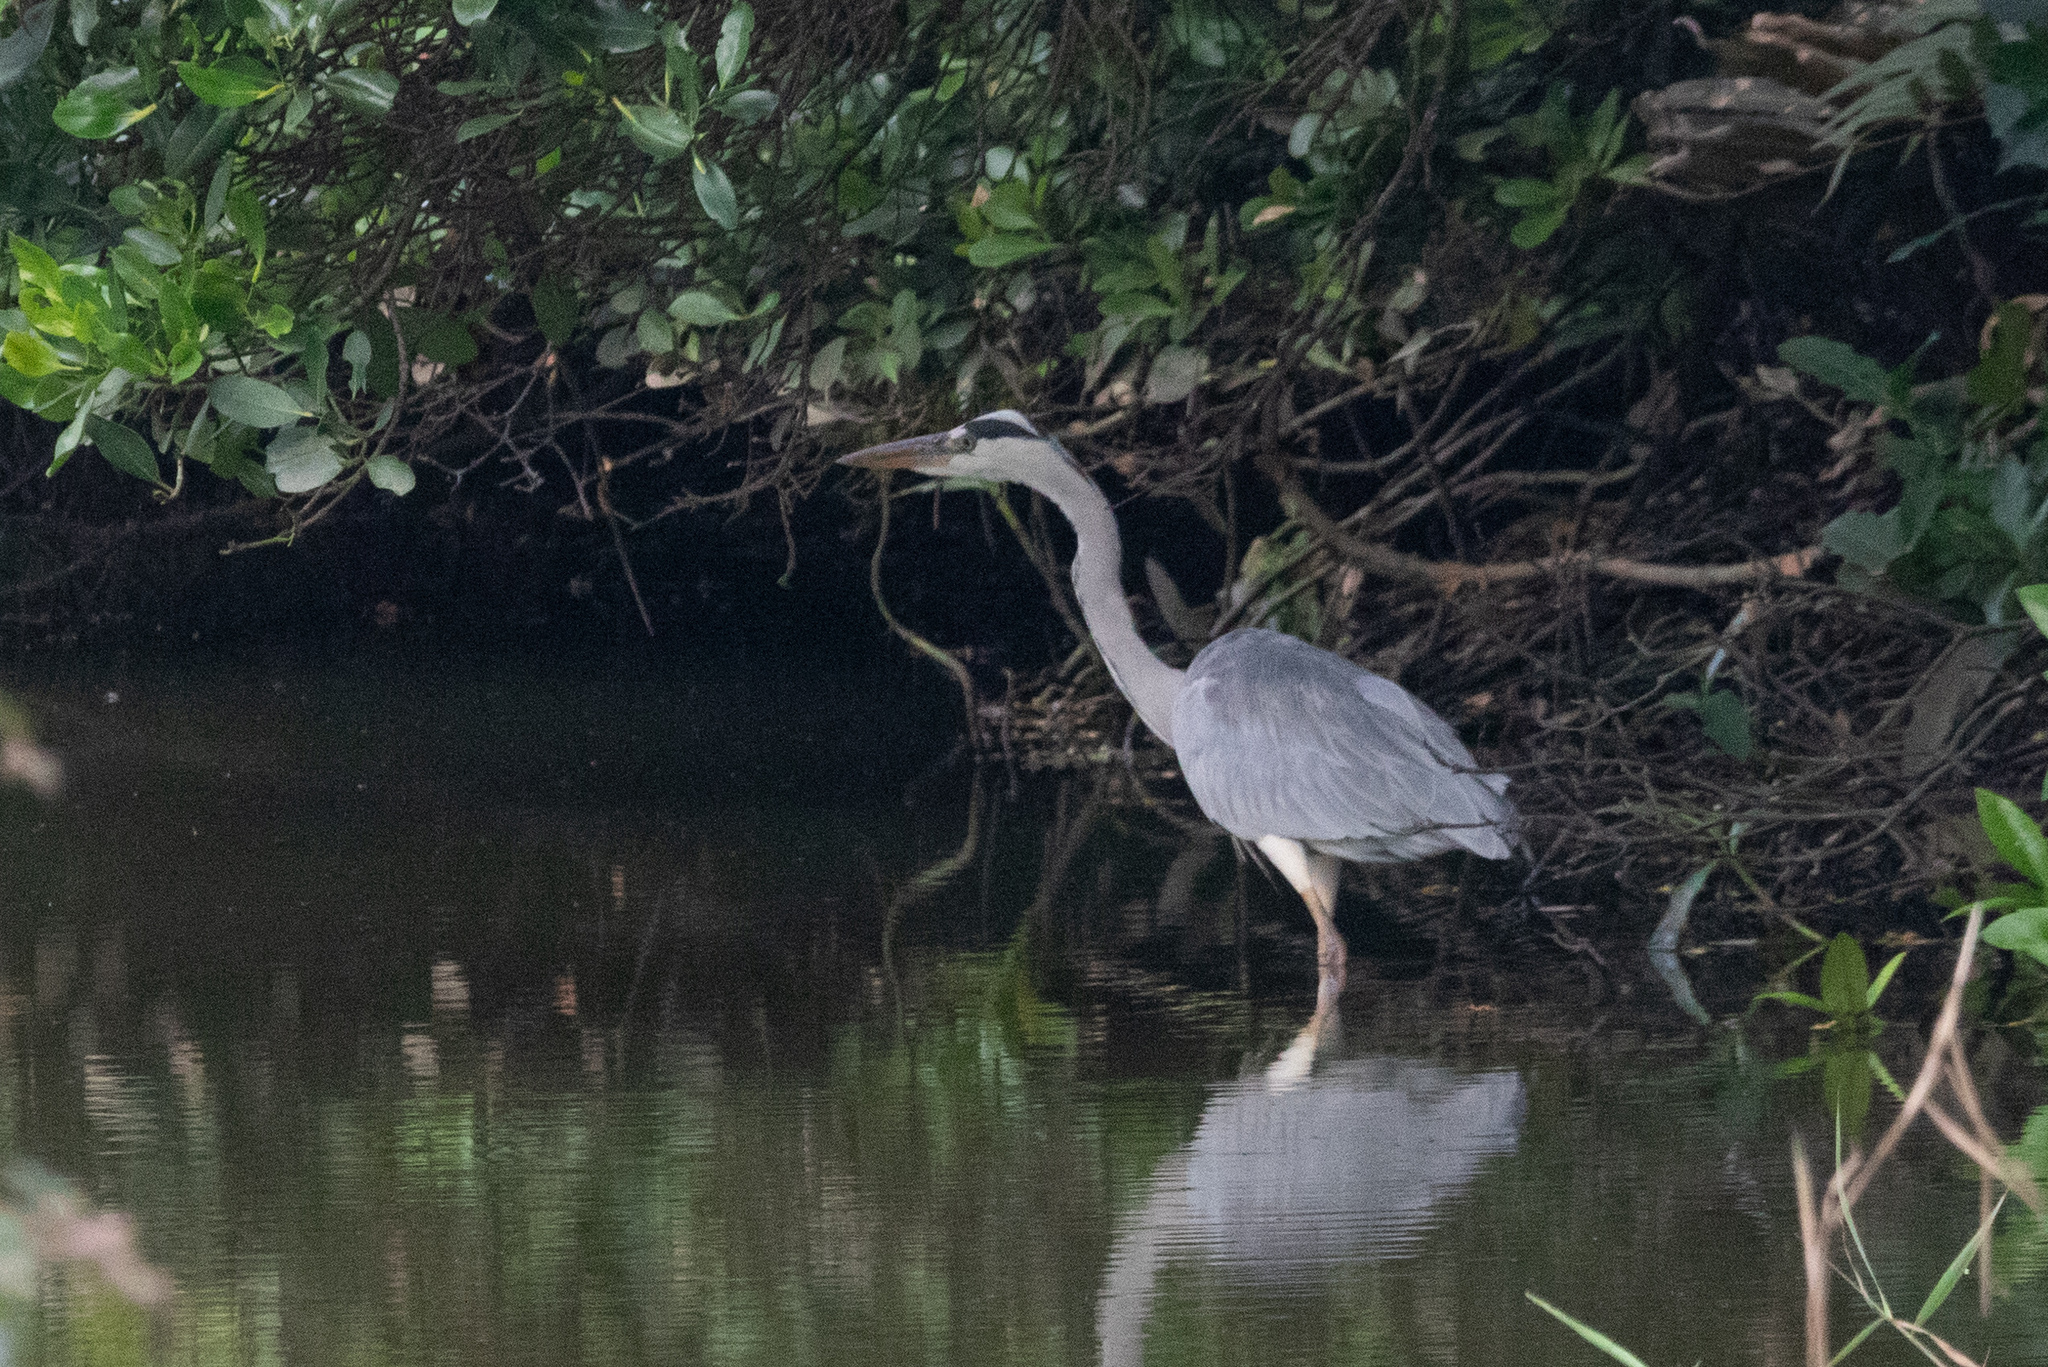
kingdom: Animalia
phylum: Chordata
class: Aves
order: Pelecaniformes
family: Ardeidae
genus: Ardea
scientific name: Ardea cinerea
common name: Grey heron
